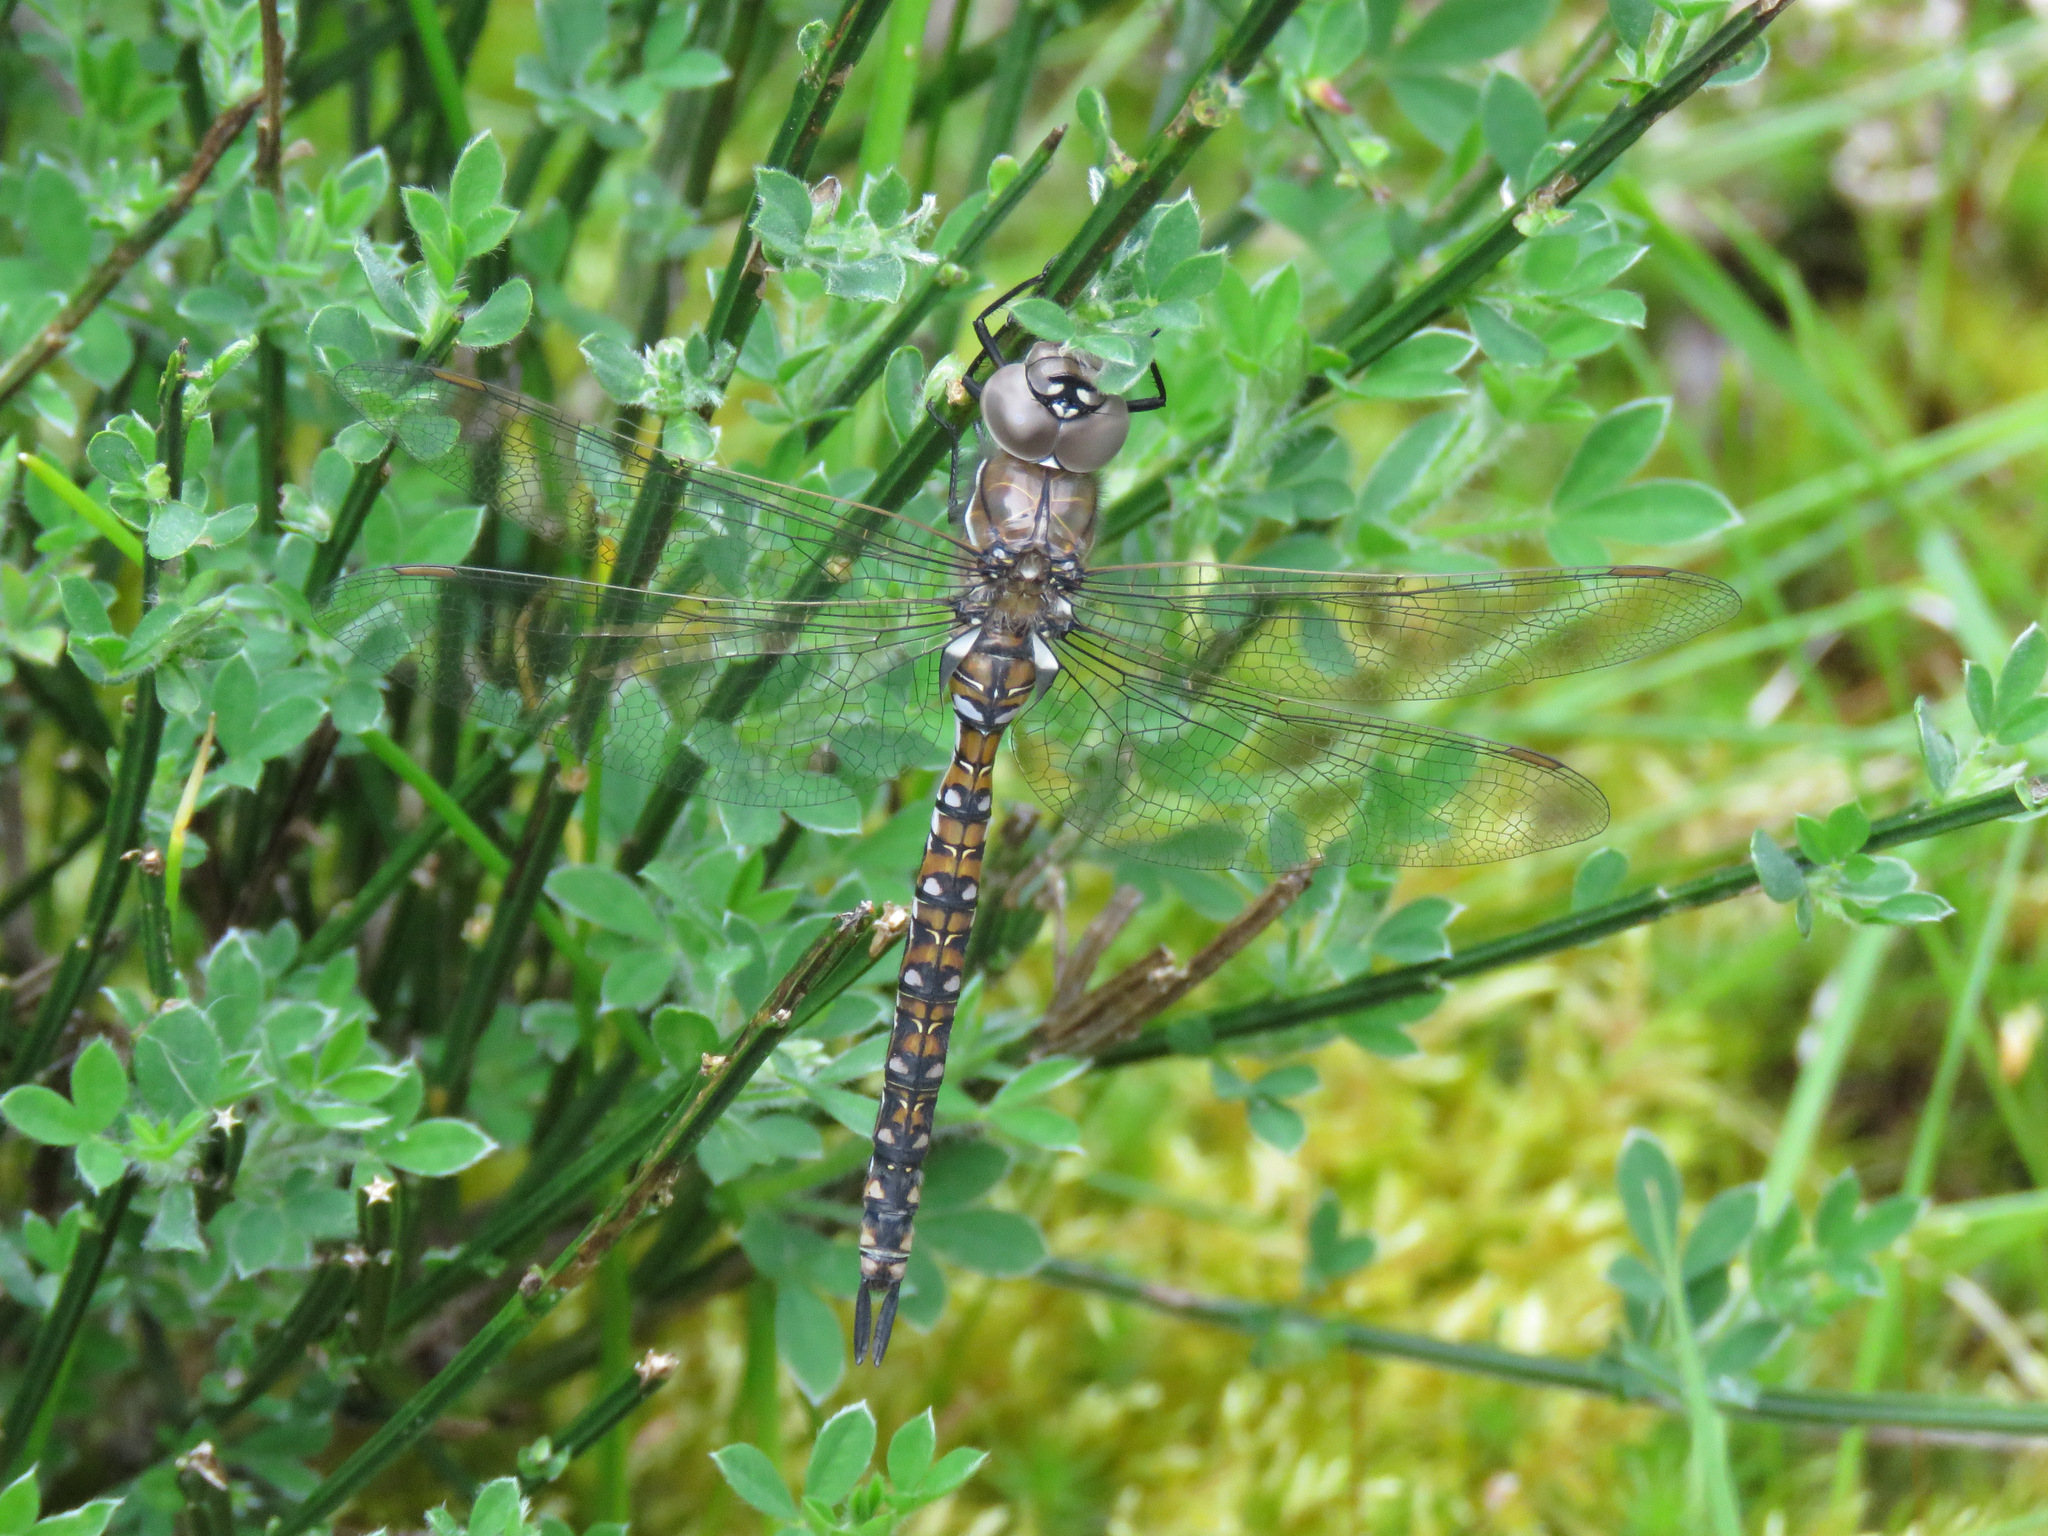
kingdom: Animalia
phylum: Arthropoda
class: Insecta
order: Odonata
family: Aeshnidae
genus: Rhionaeschna
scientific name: Rhionaeschna californica
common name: California darner
